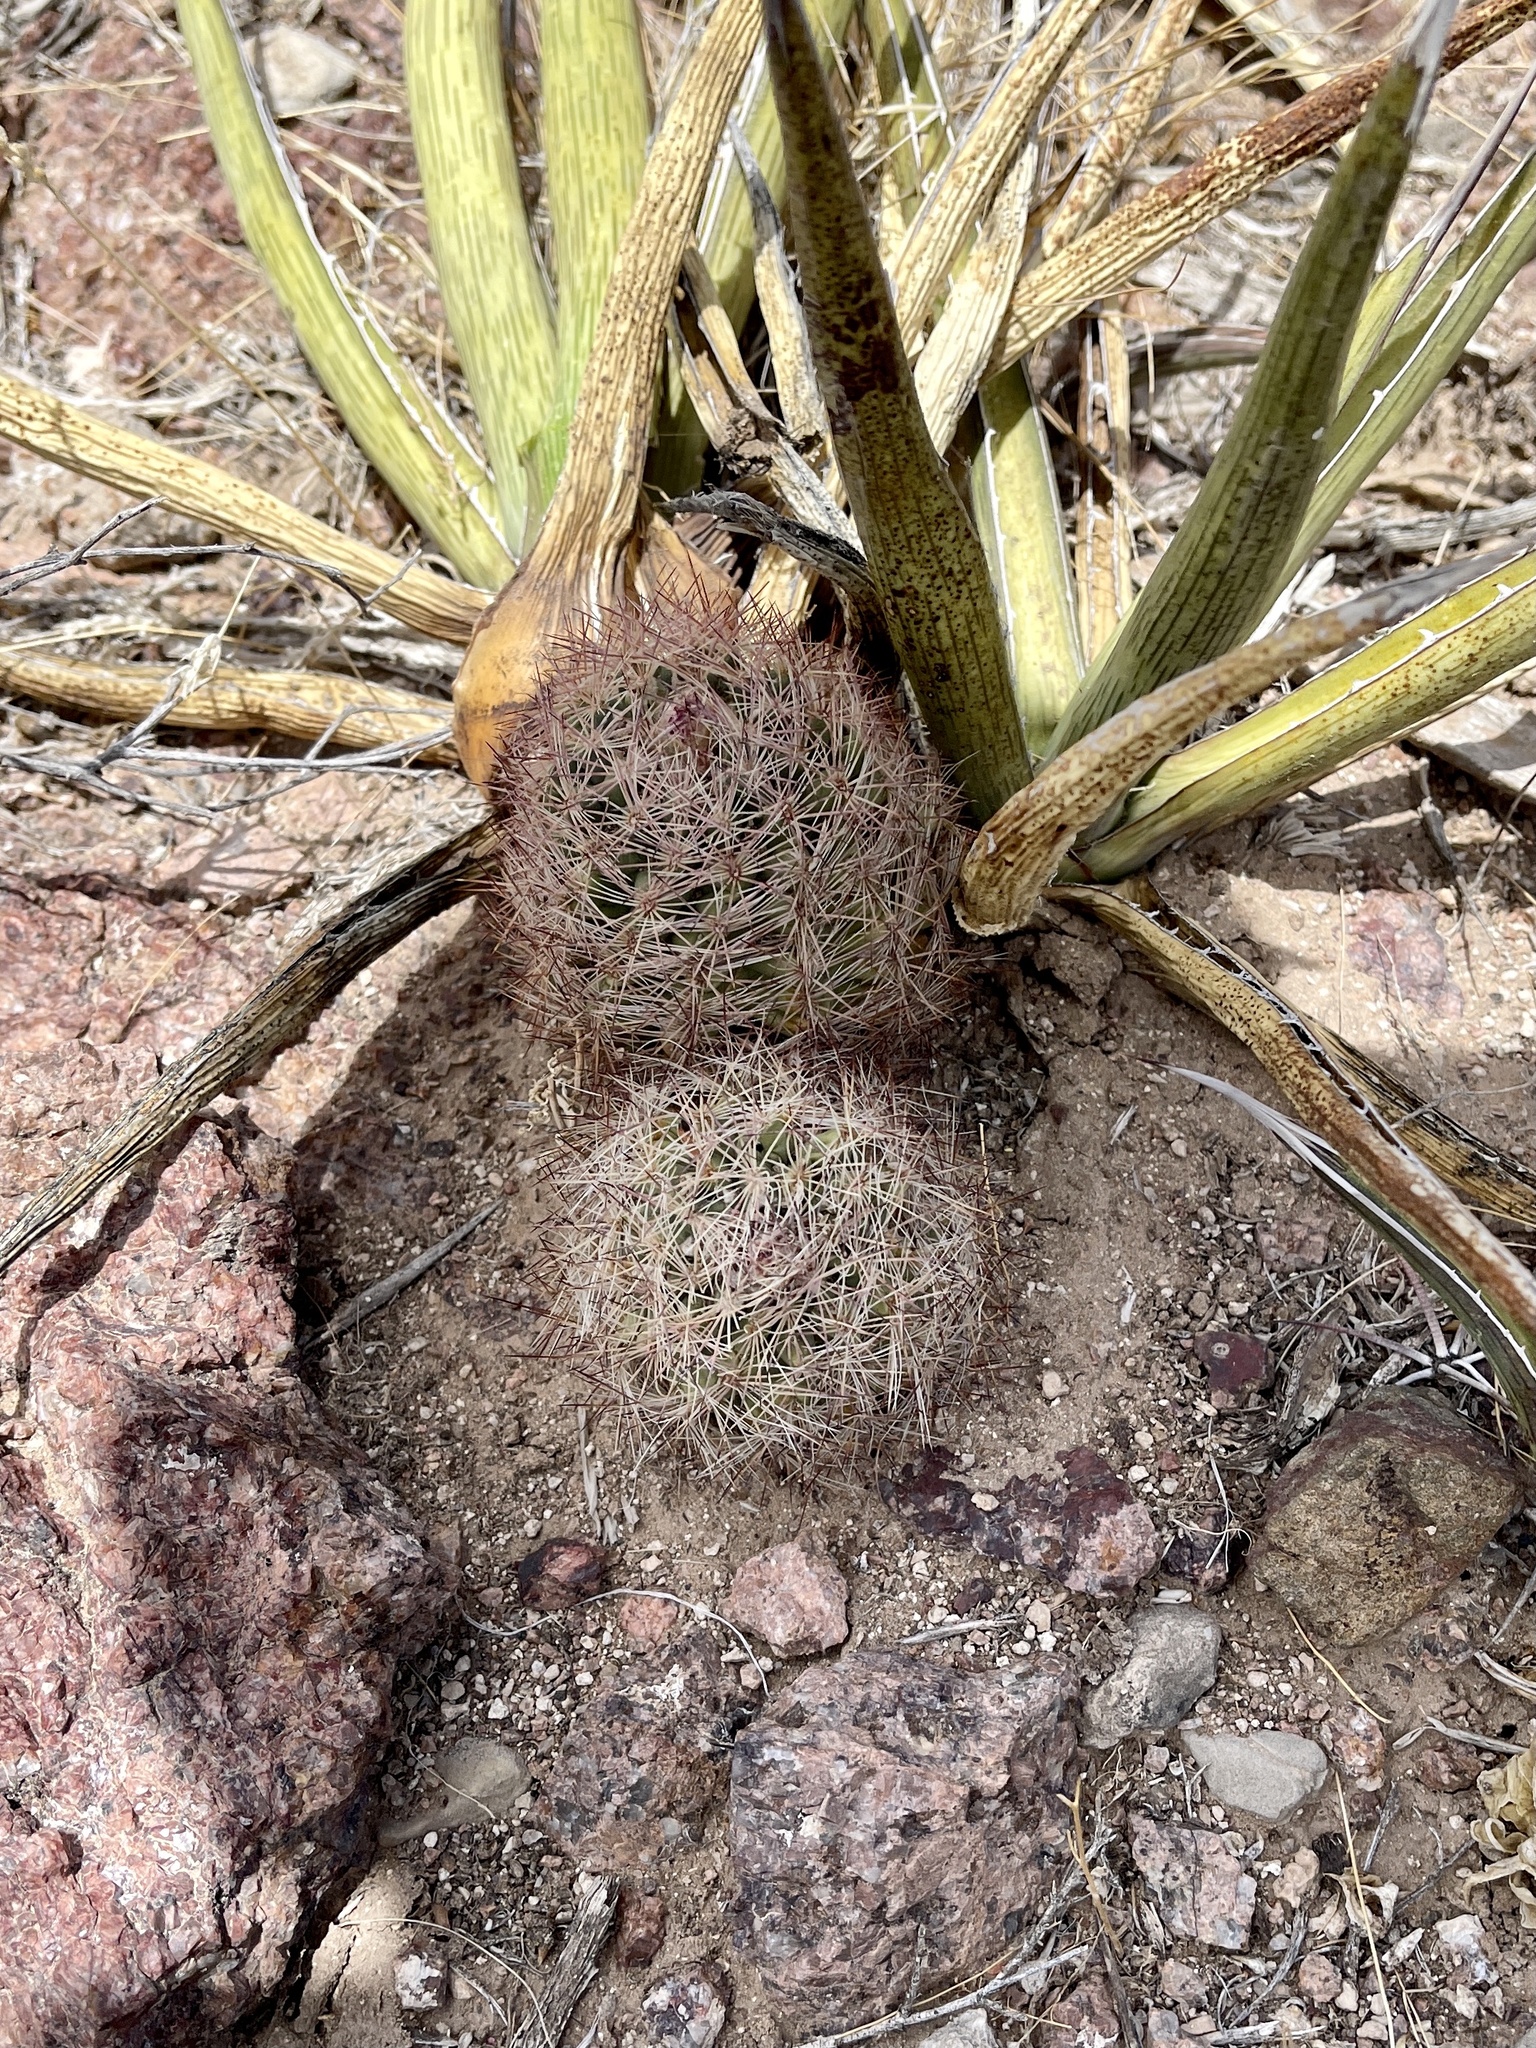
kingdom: Plantae
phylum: Tracheophyta
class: Magnoliopsida
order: Caryophyllales
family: Cactaceae
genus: Sclerocactus
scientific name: Sclerocactus intertextus
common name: White fish-hook cactus
